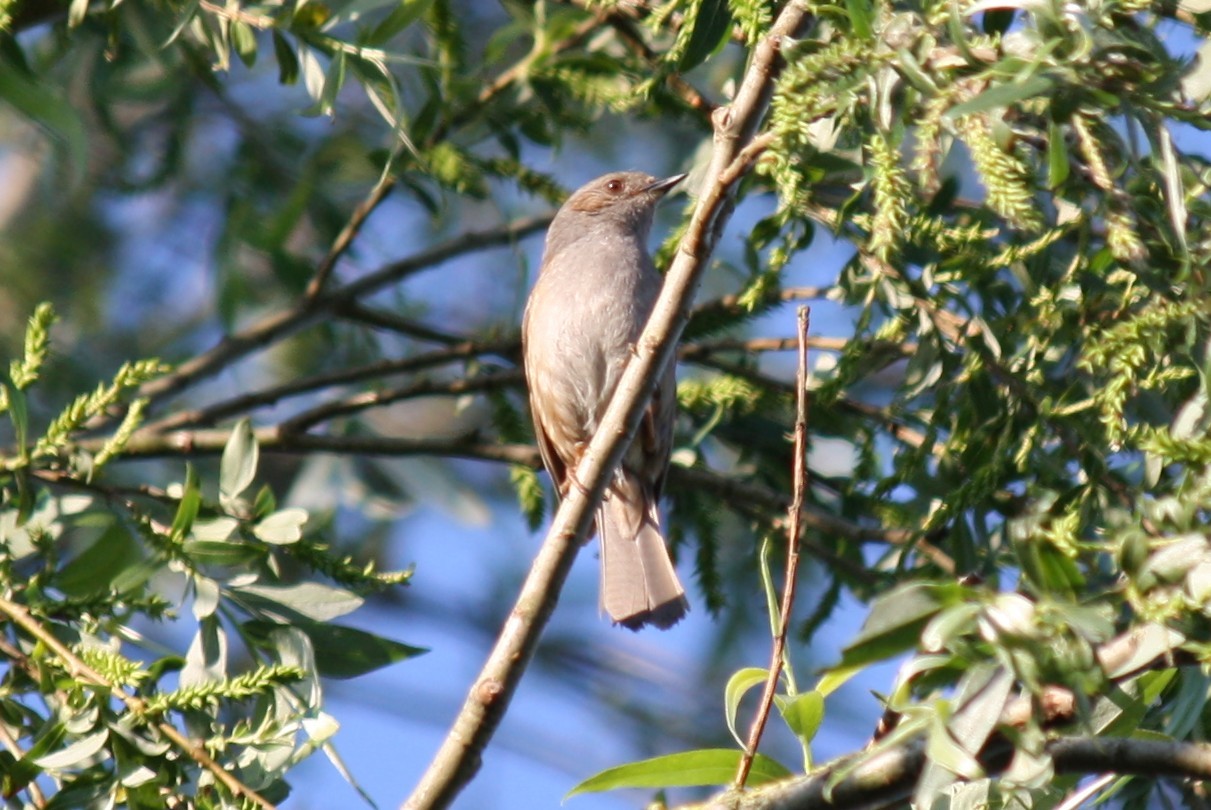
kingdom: Animalia
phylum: Chordata
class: Aves
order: Passeriformes
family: Prunellidae
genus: Prunella
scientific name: Prunella modularis
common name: Dunnock
